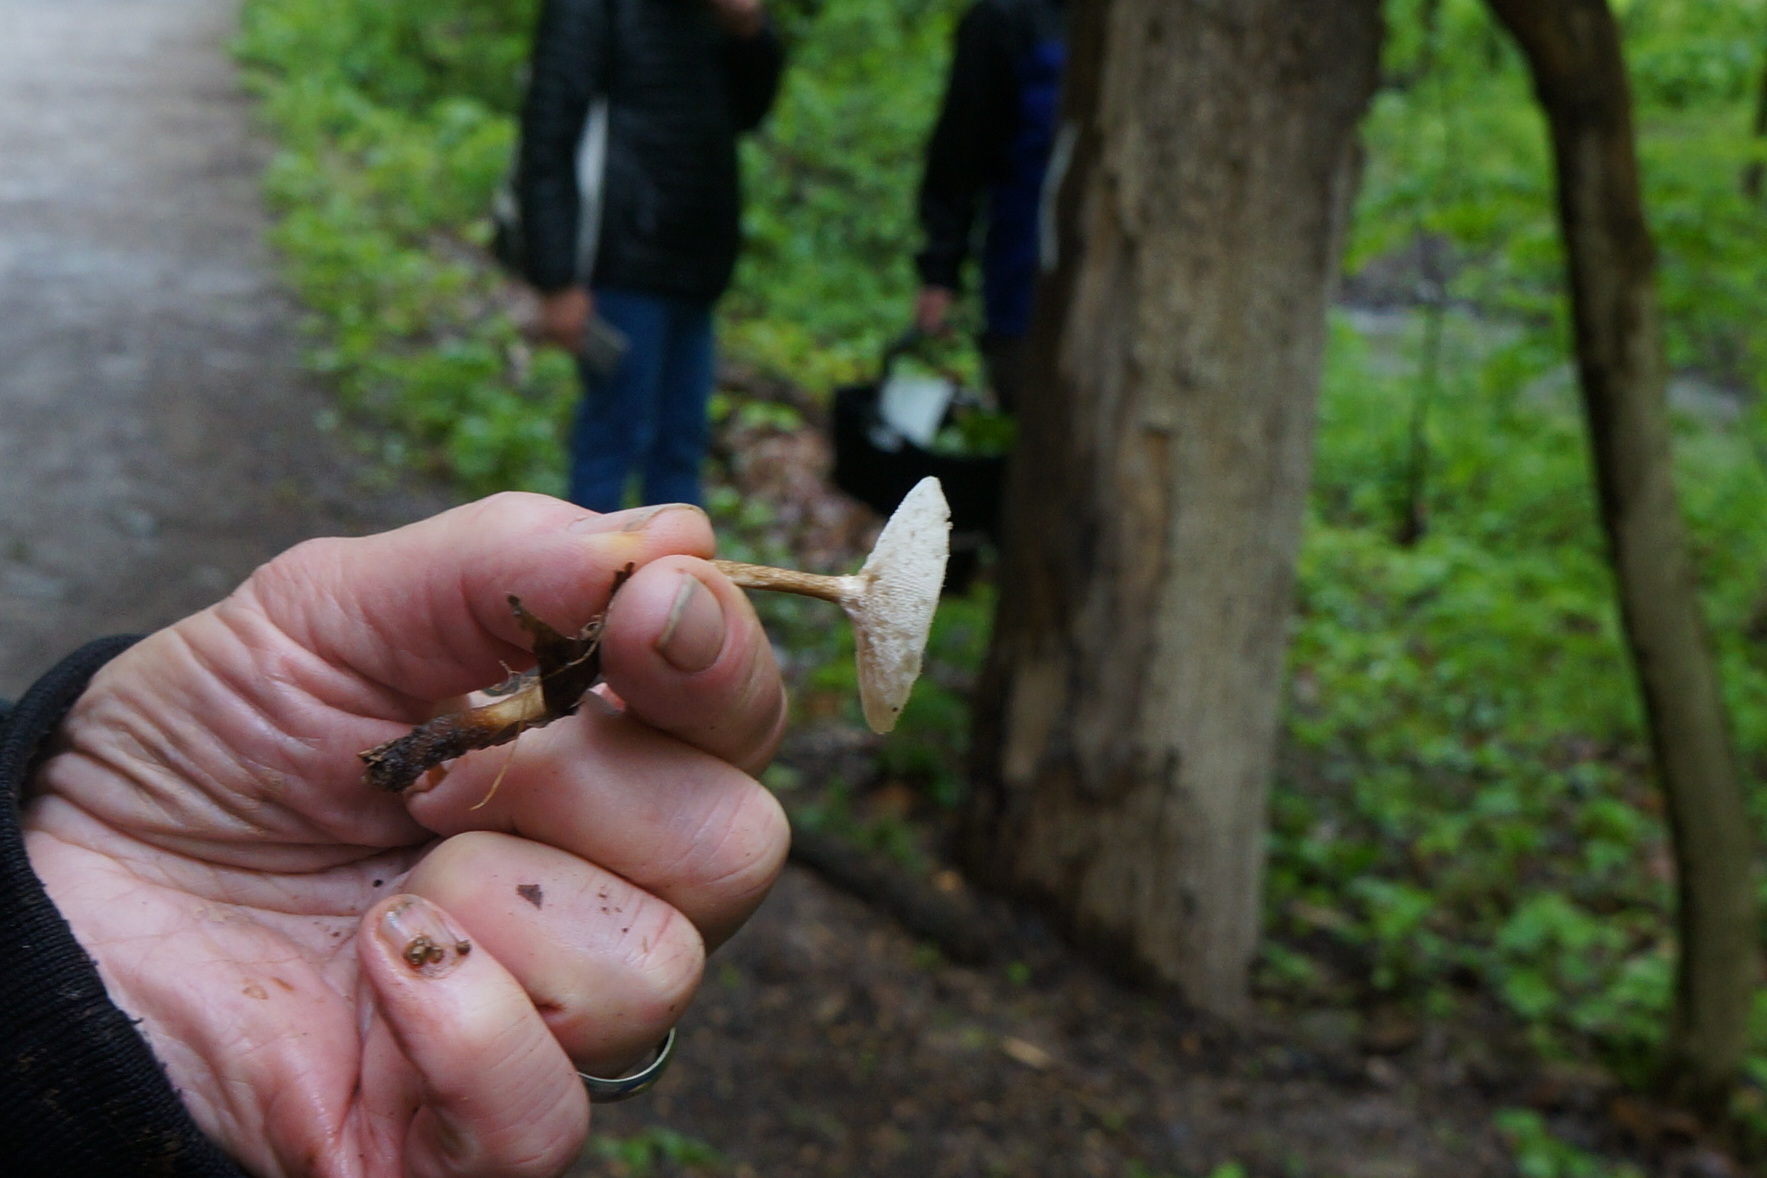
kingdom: Fungi
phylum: Basidiomycota
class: Agaricomycetes
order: Polyporales
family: Polyporaceae
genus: Lentinus
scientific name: Lentinus arcularius
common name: Spring polypore
